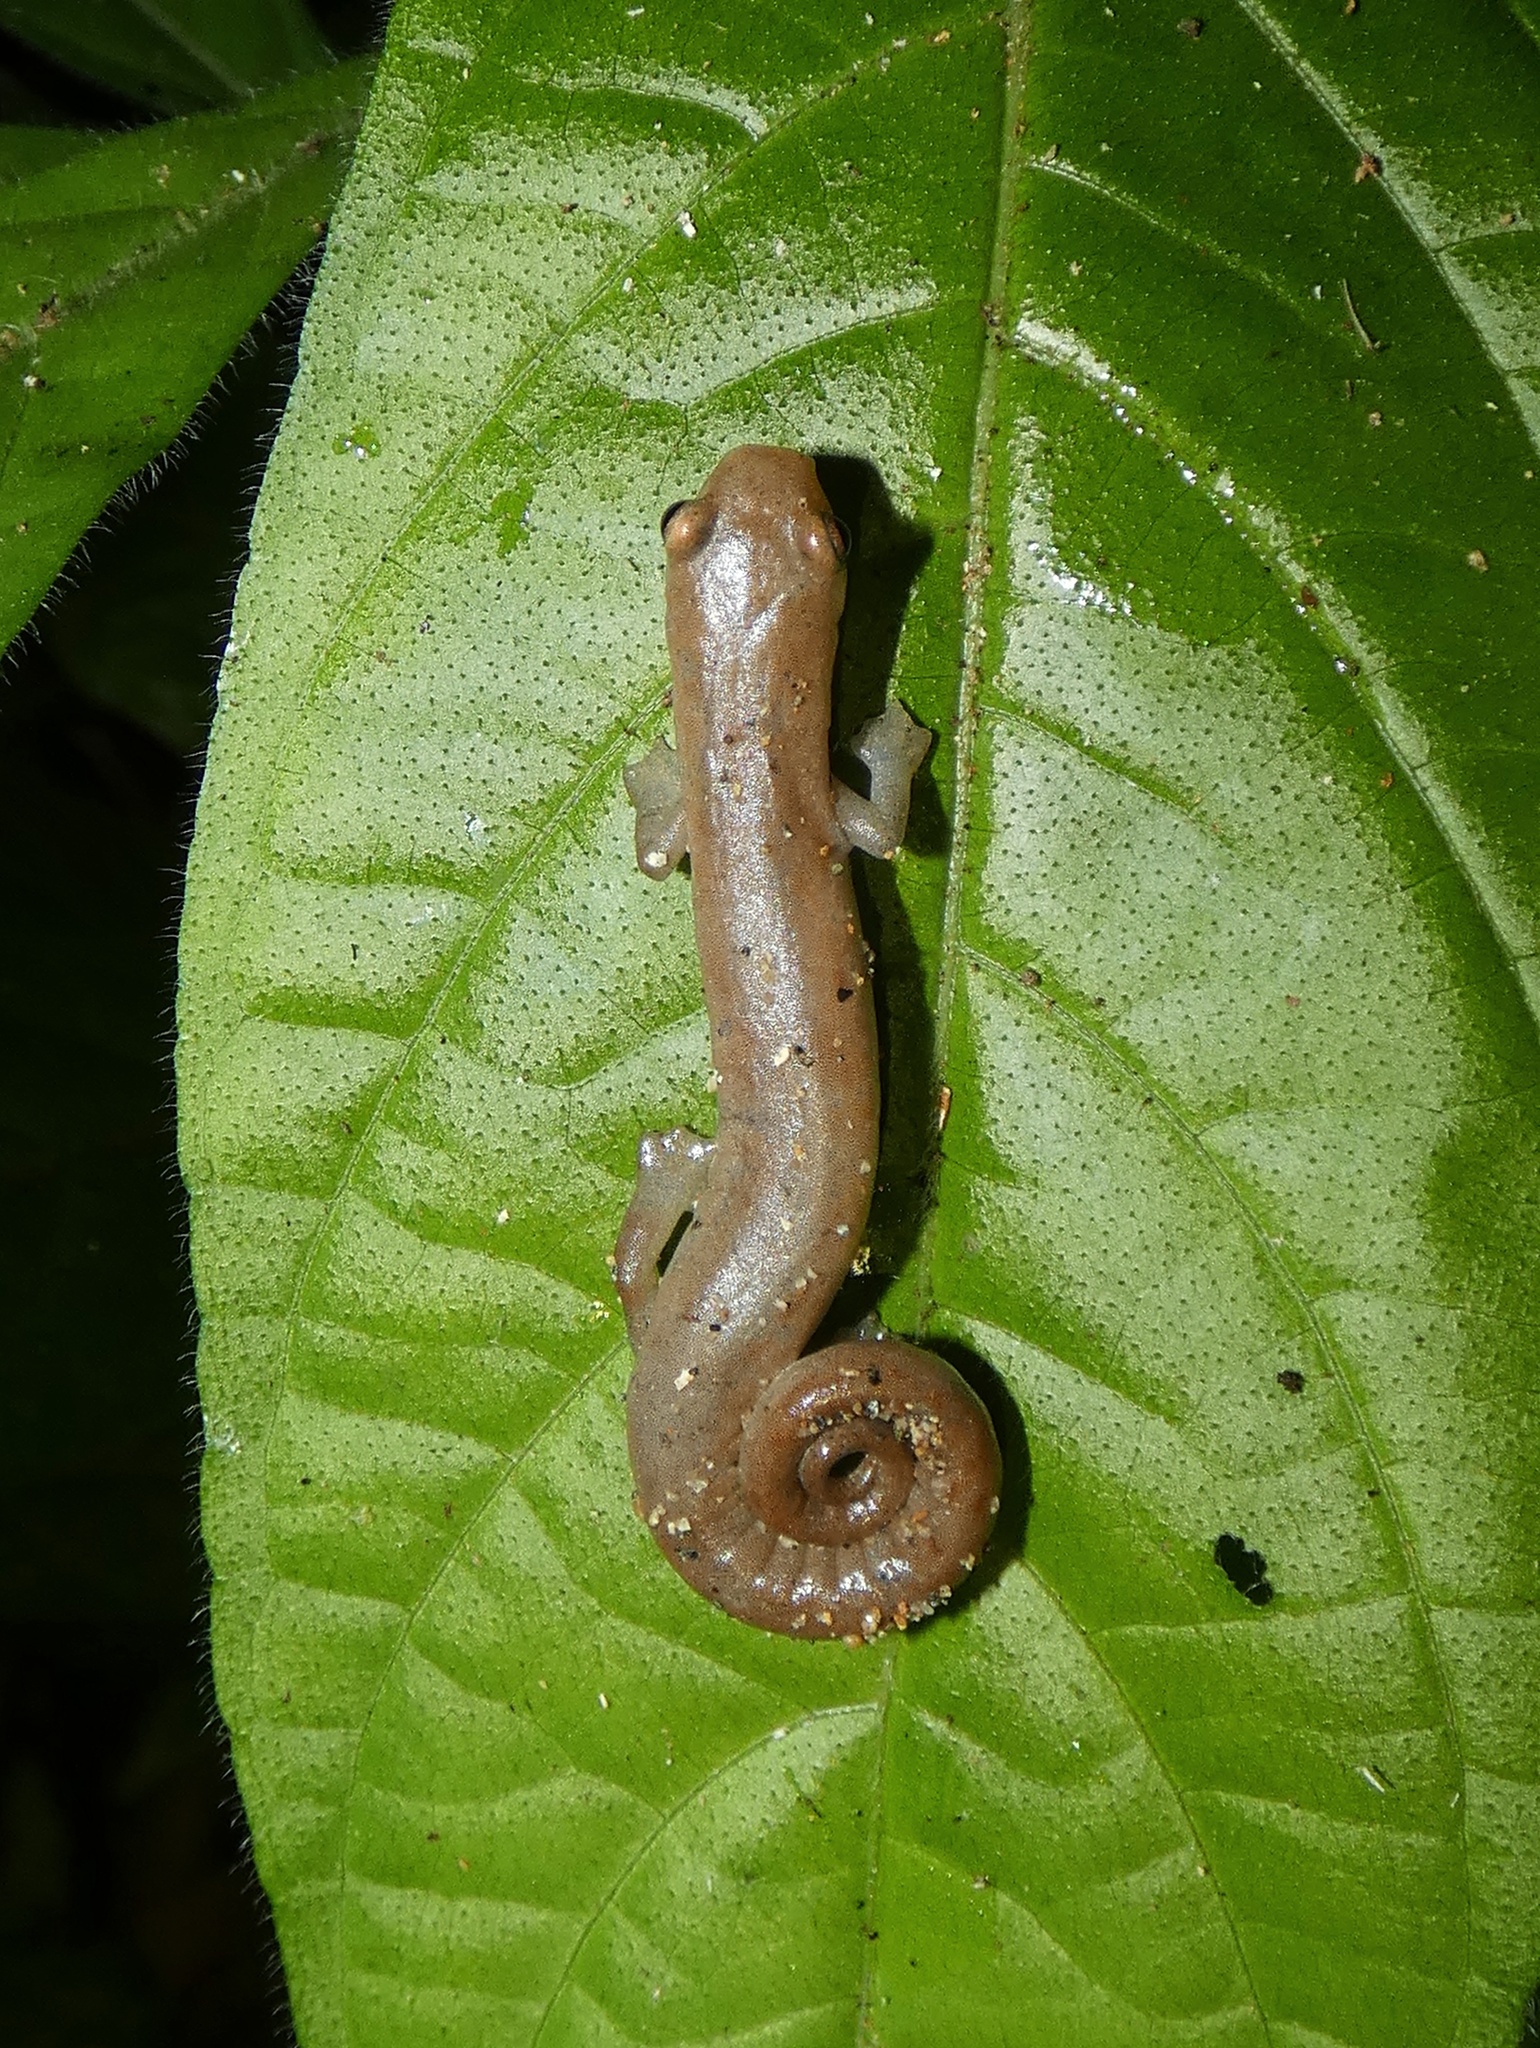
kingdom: Animalia
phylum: Chordata
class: Amphibia
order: Caudata
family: Plethodontidae
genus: Bolitoglossa
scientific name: Bolitoglossa cuna
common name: Camp sasardi salamander
